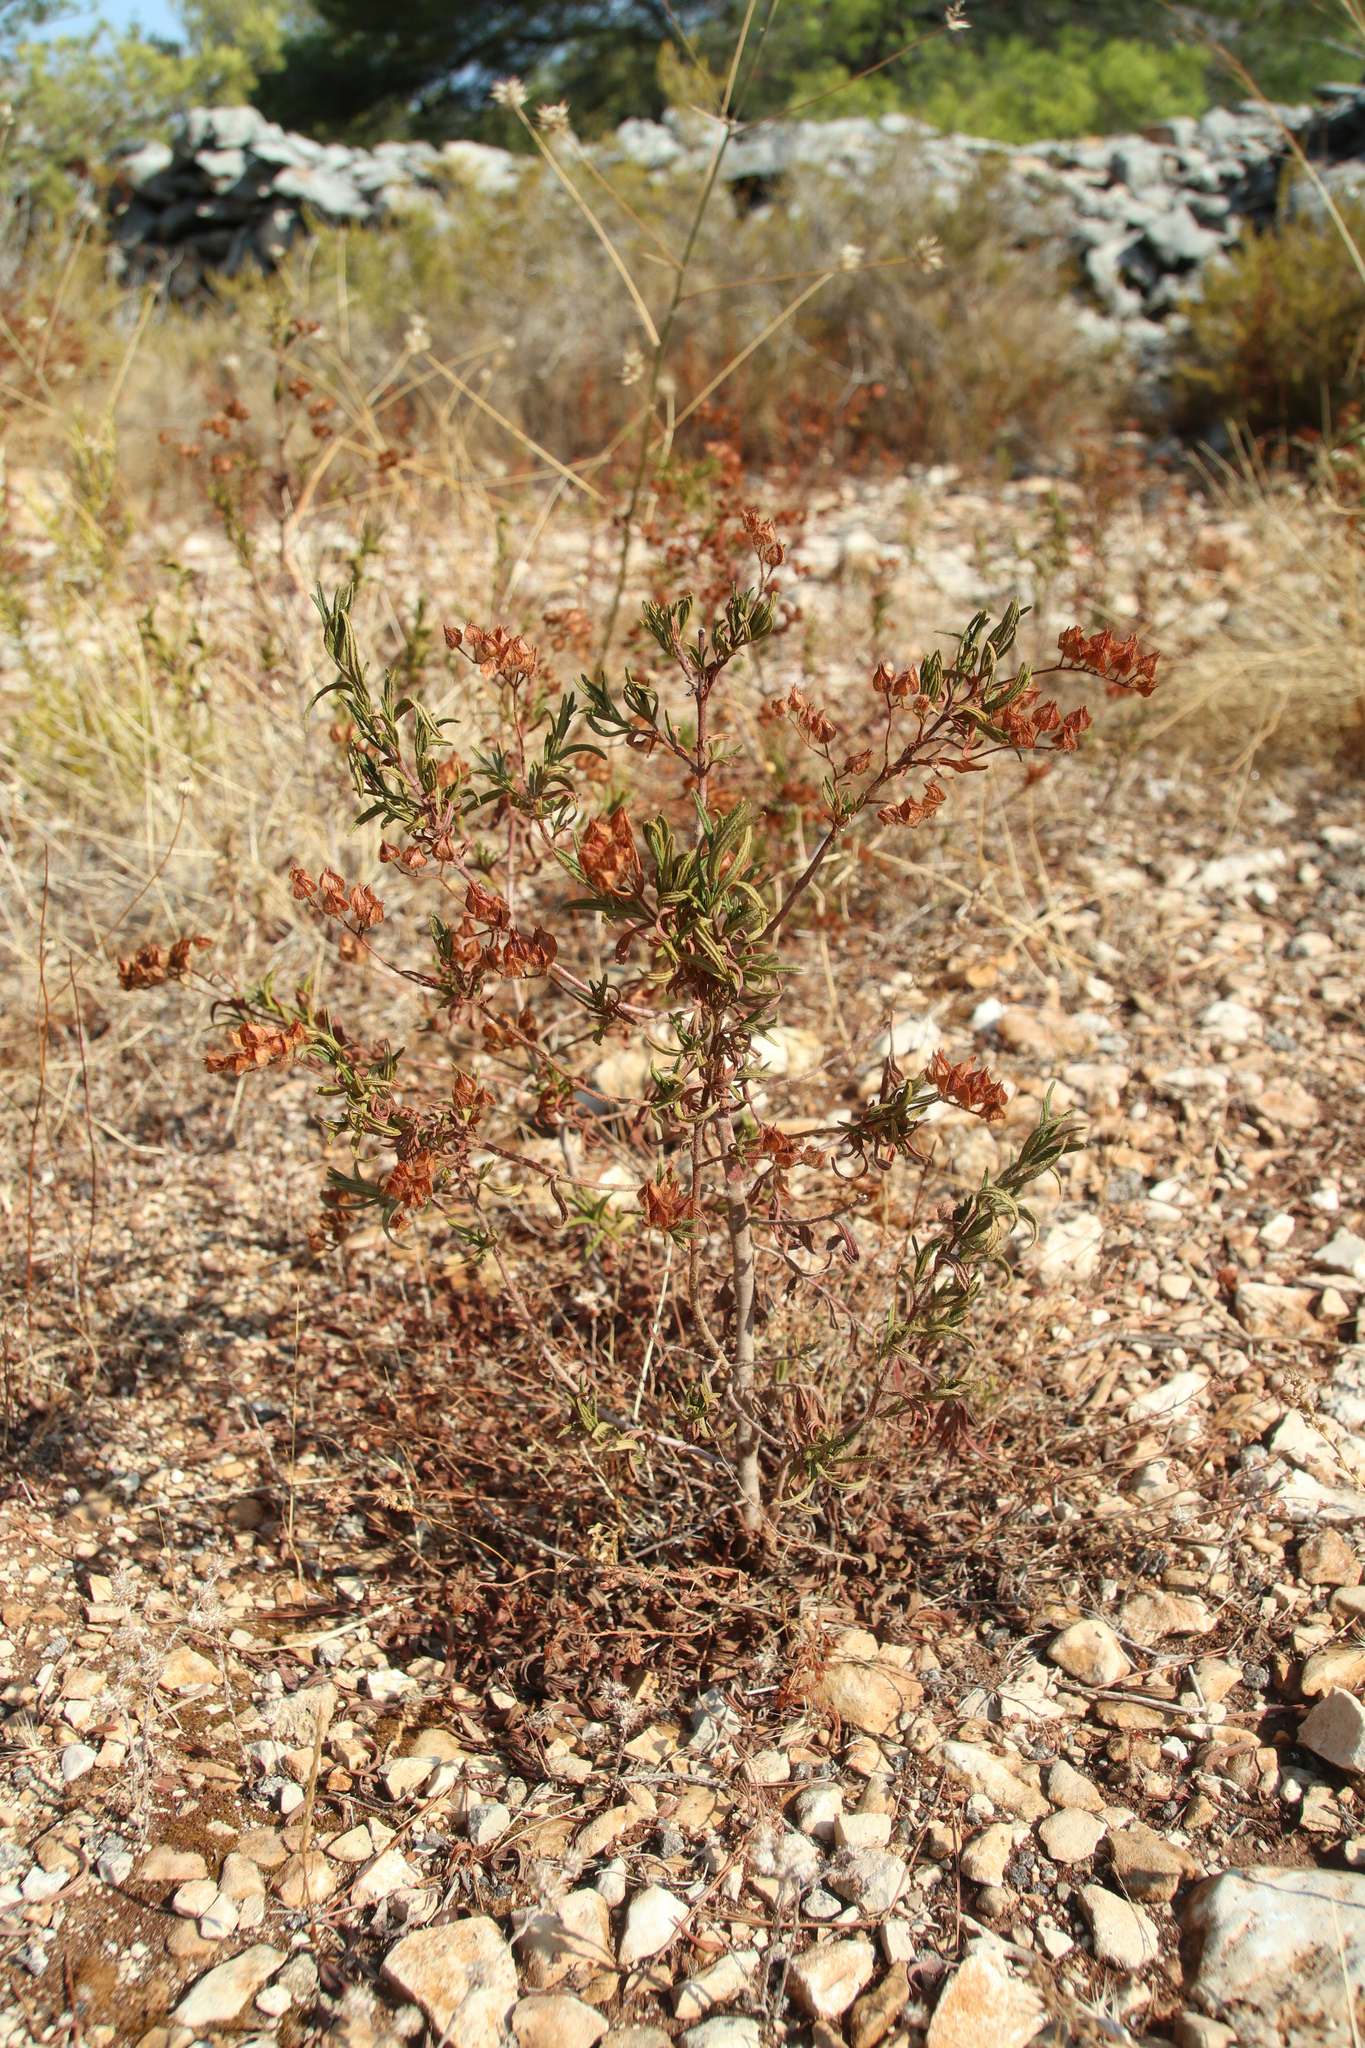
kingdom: Plantae
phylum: Tracheophyta
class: Magnoliopsida
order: Malvales
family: Cistaceae
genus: Cistus
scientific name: Cistus monspeliensis
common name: Montpelier cistus
